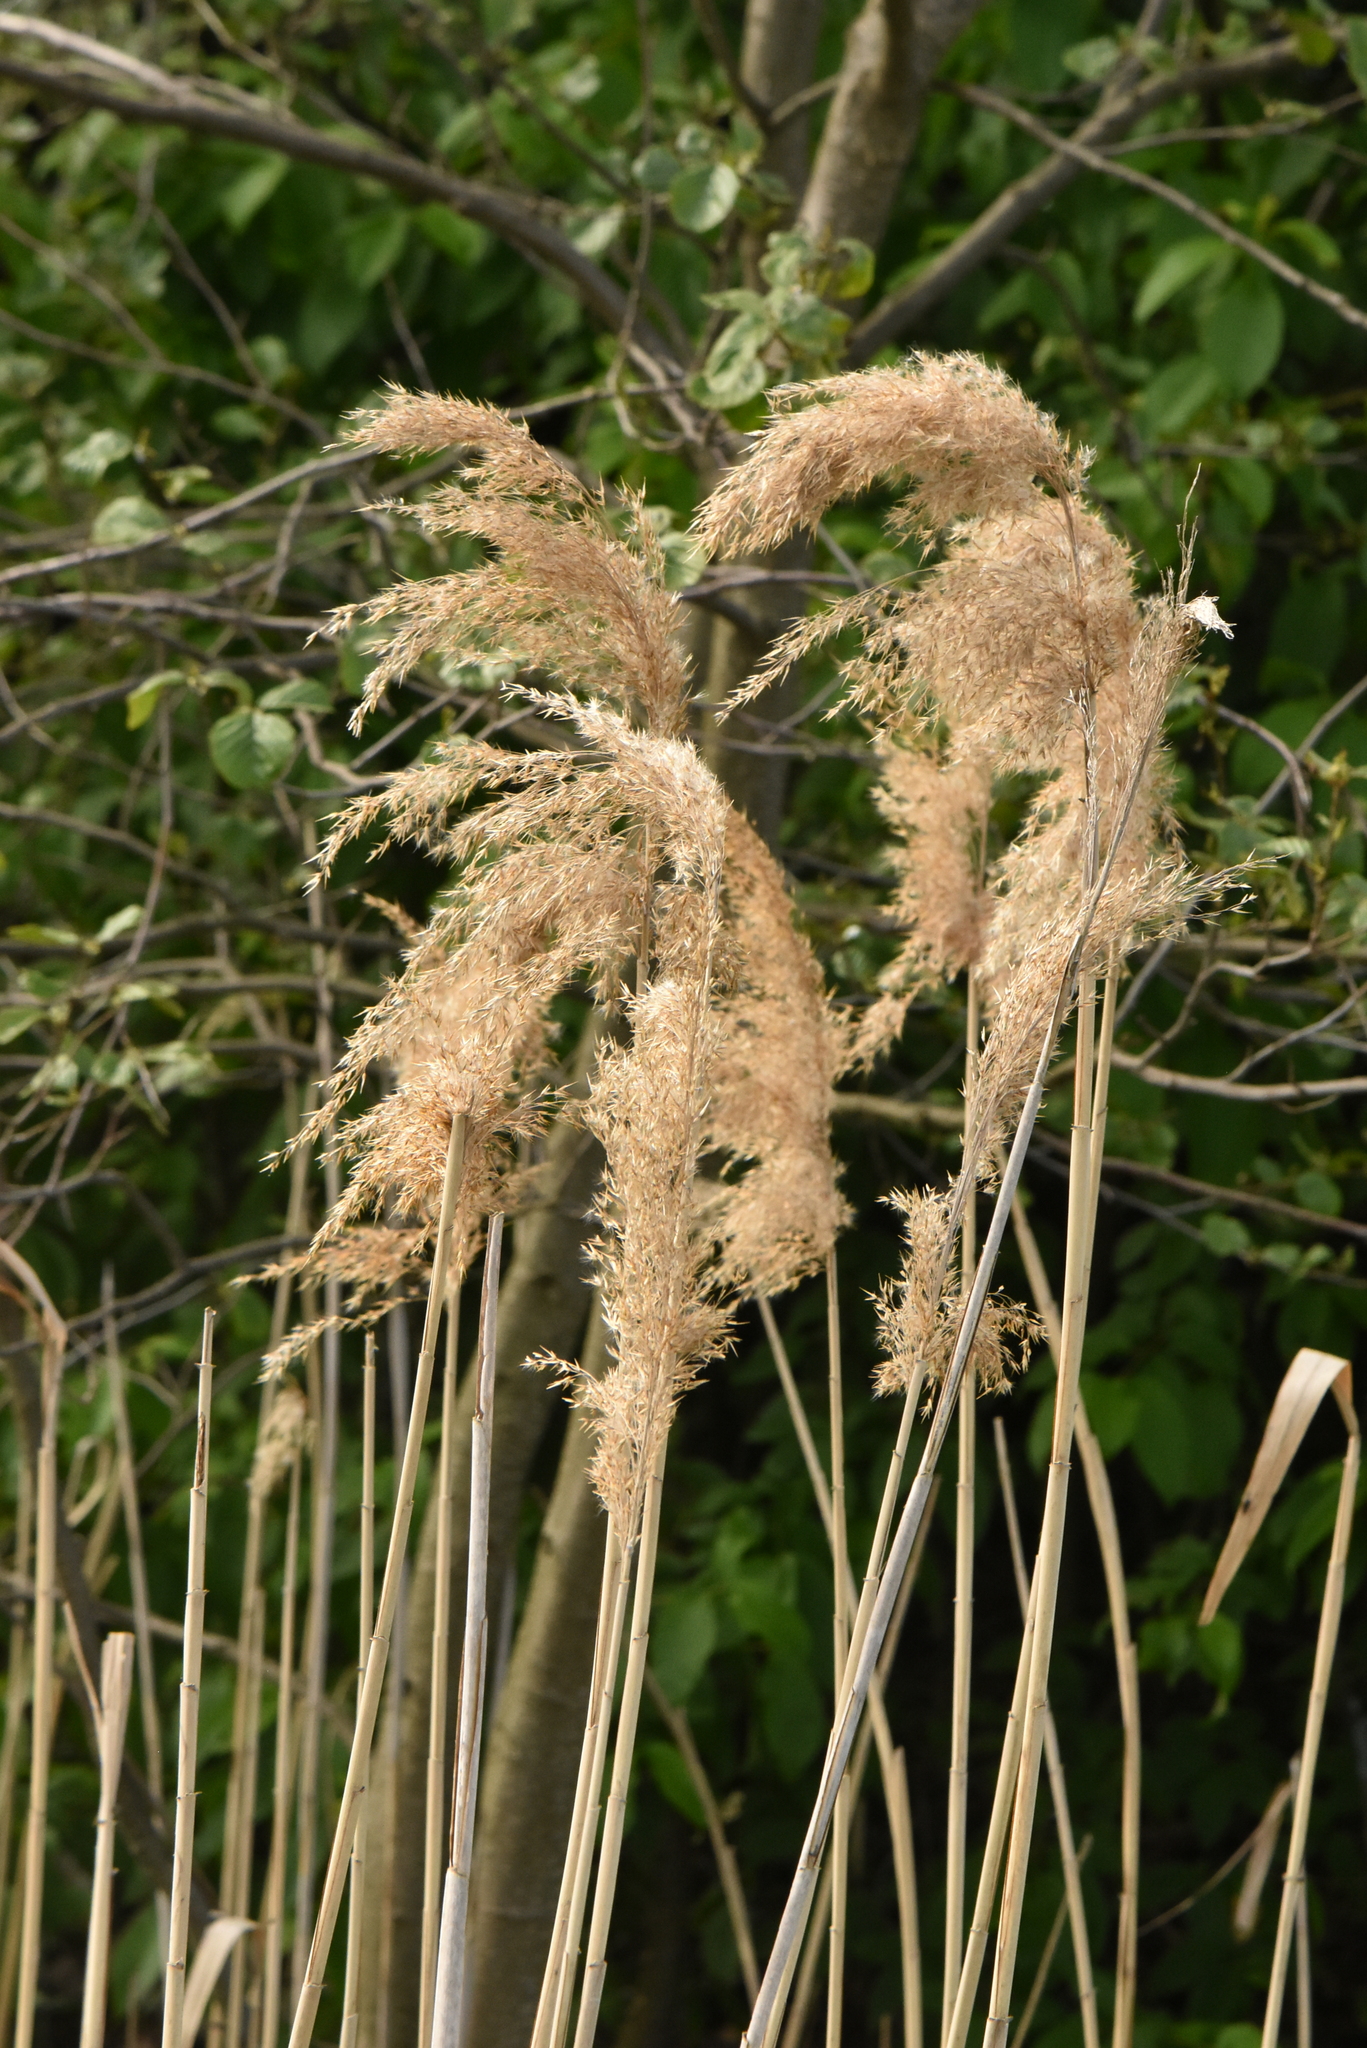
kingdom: Plantae
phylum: Tracheophyta
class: Liliopsida
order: Poales
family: Poaceae
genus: Phragmites
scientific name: Phragmites australis
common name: Common reed
